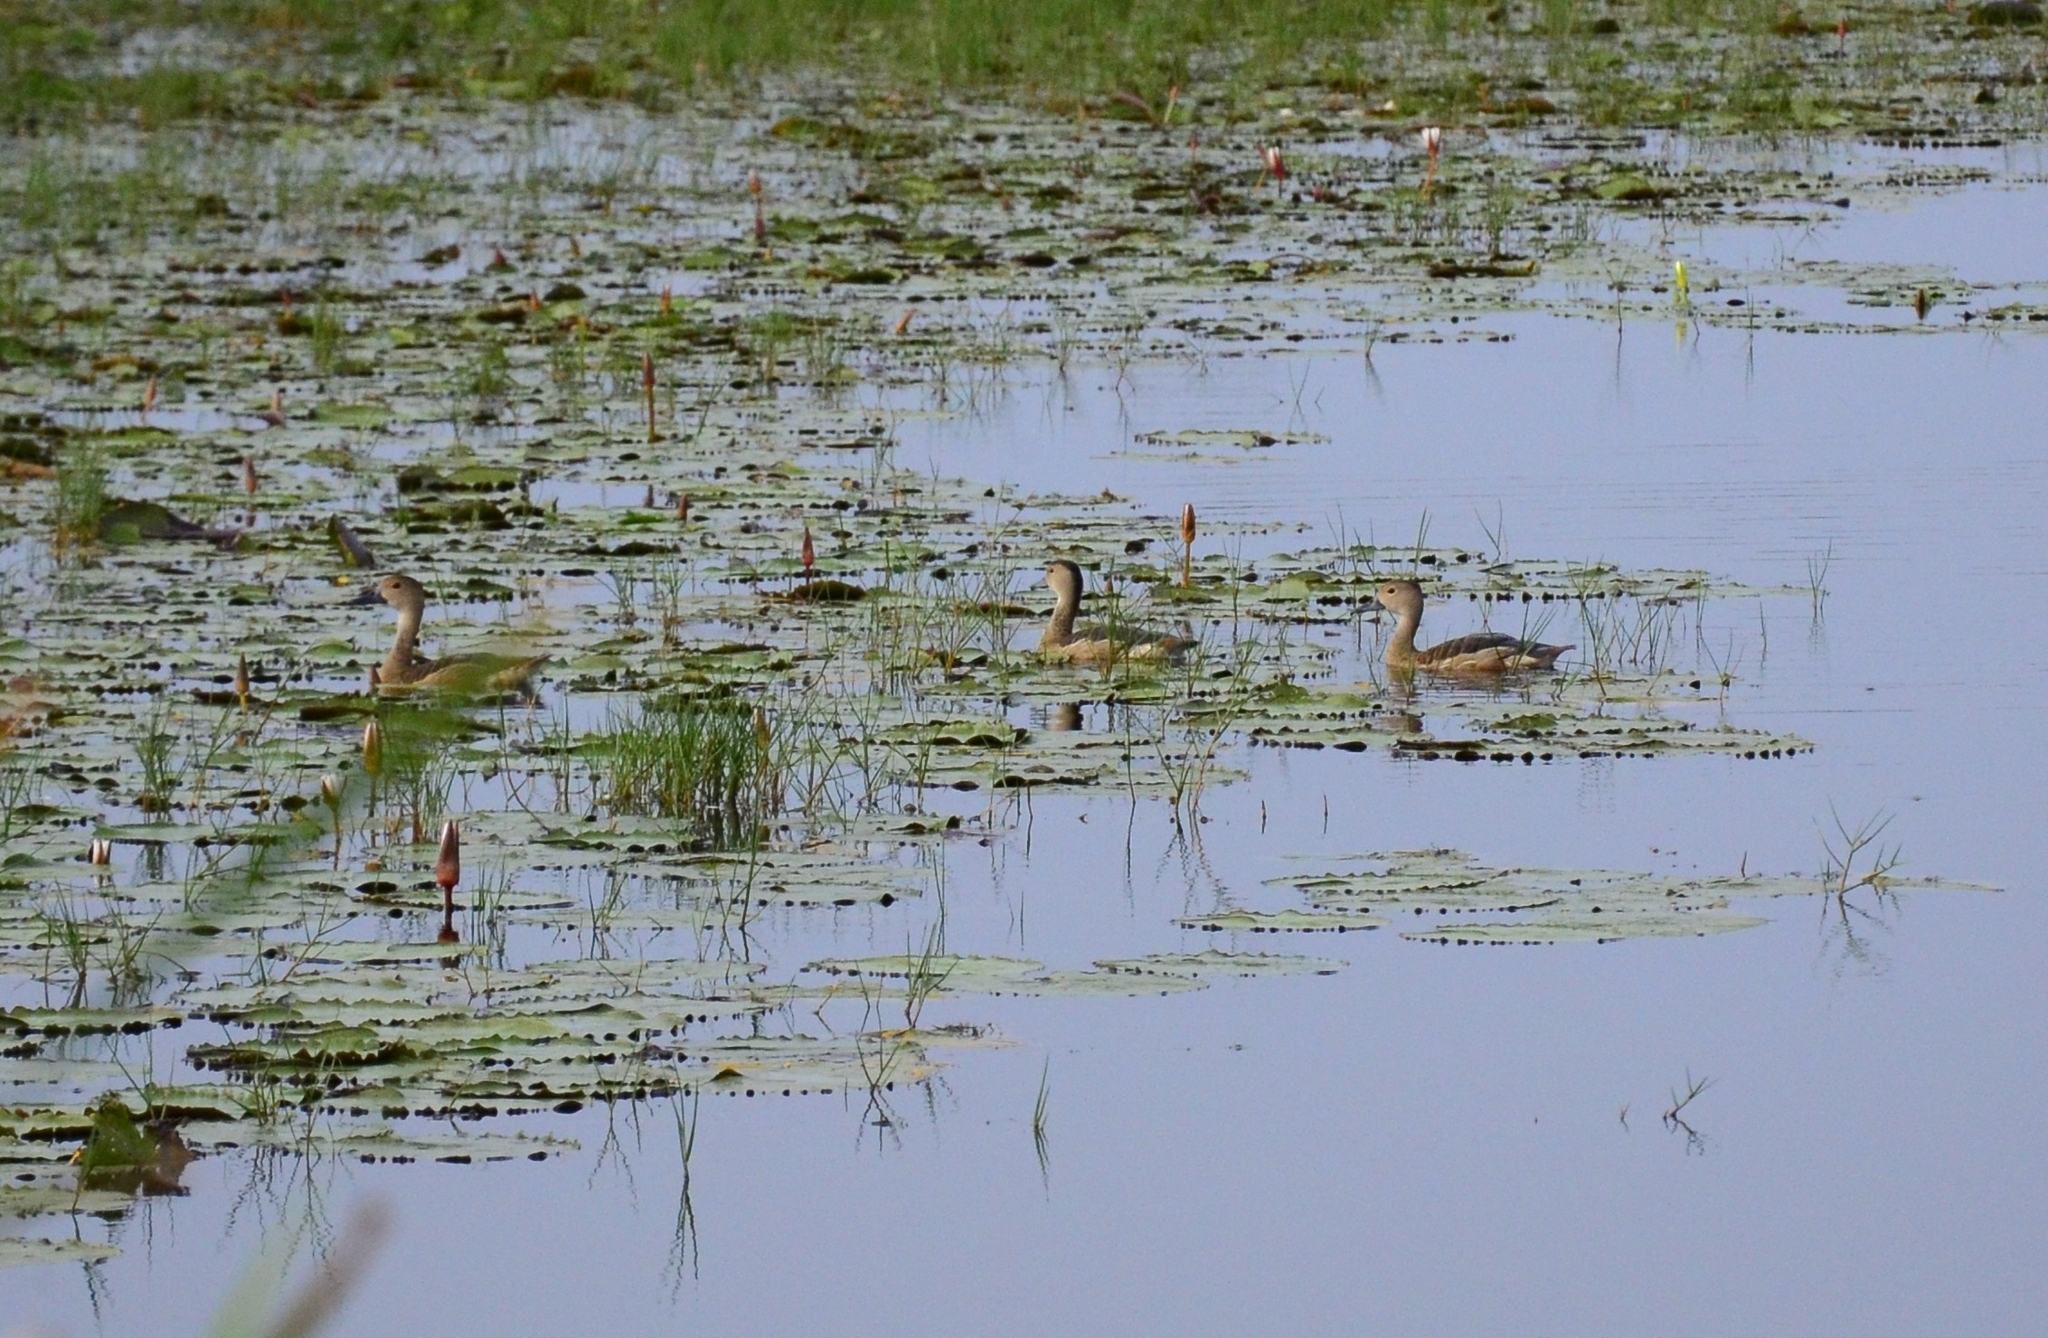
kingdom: Animalia
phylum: Chordata
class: Aves
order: Anseriformes
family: Anatidae
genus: Dendrocygna
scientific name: Dendrocygna javanica
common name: Lesser whistling-duck
